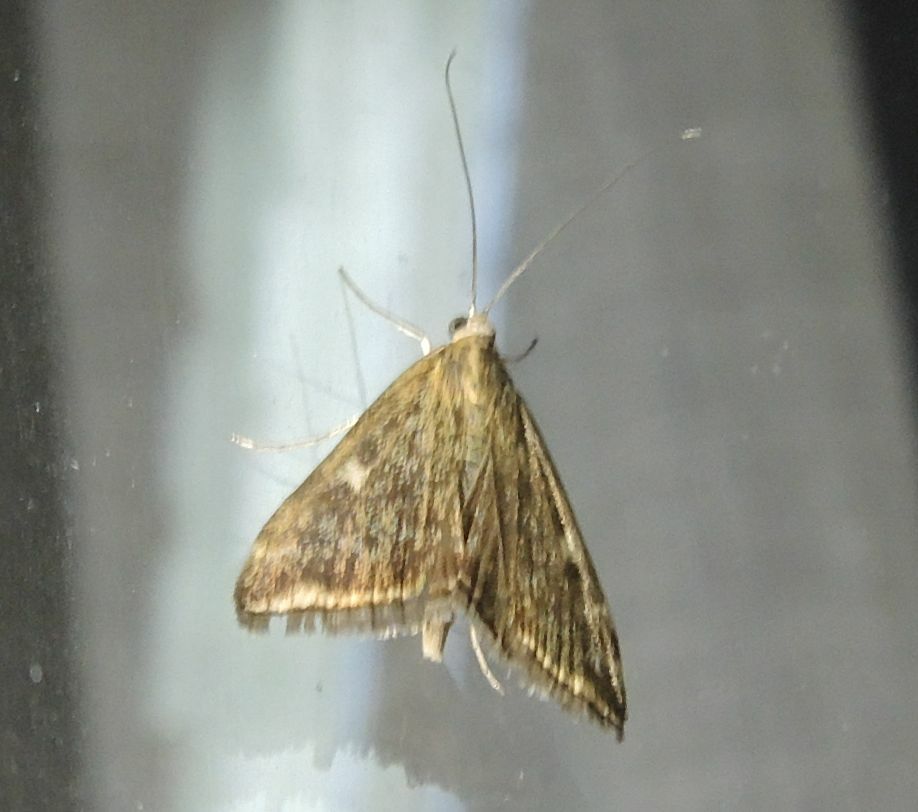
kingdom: Animalia
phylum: Arthropoda
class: Insecta
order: Lepidoptera
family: Crambidae
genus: Loxostege
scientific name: Loxostege sticticalis
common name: Crambid moth
